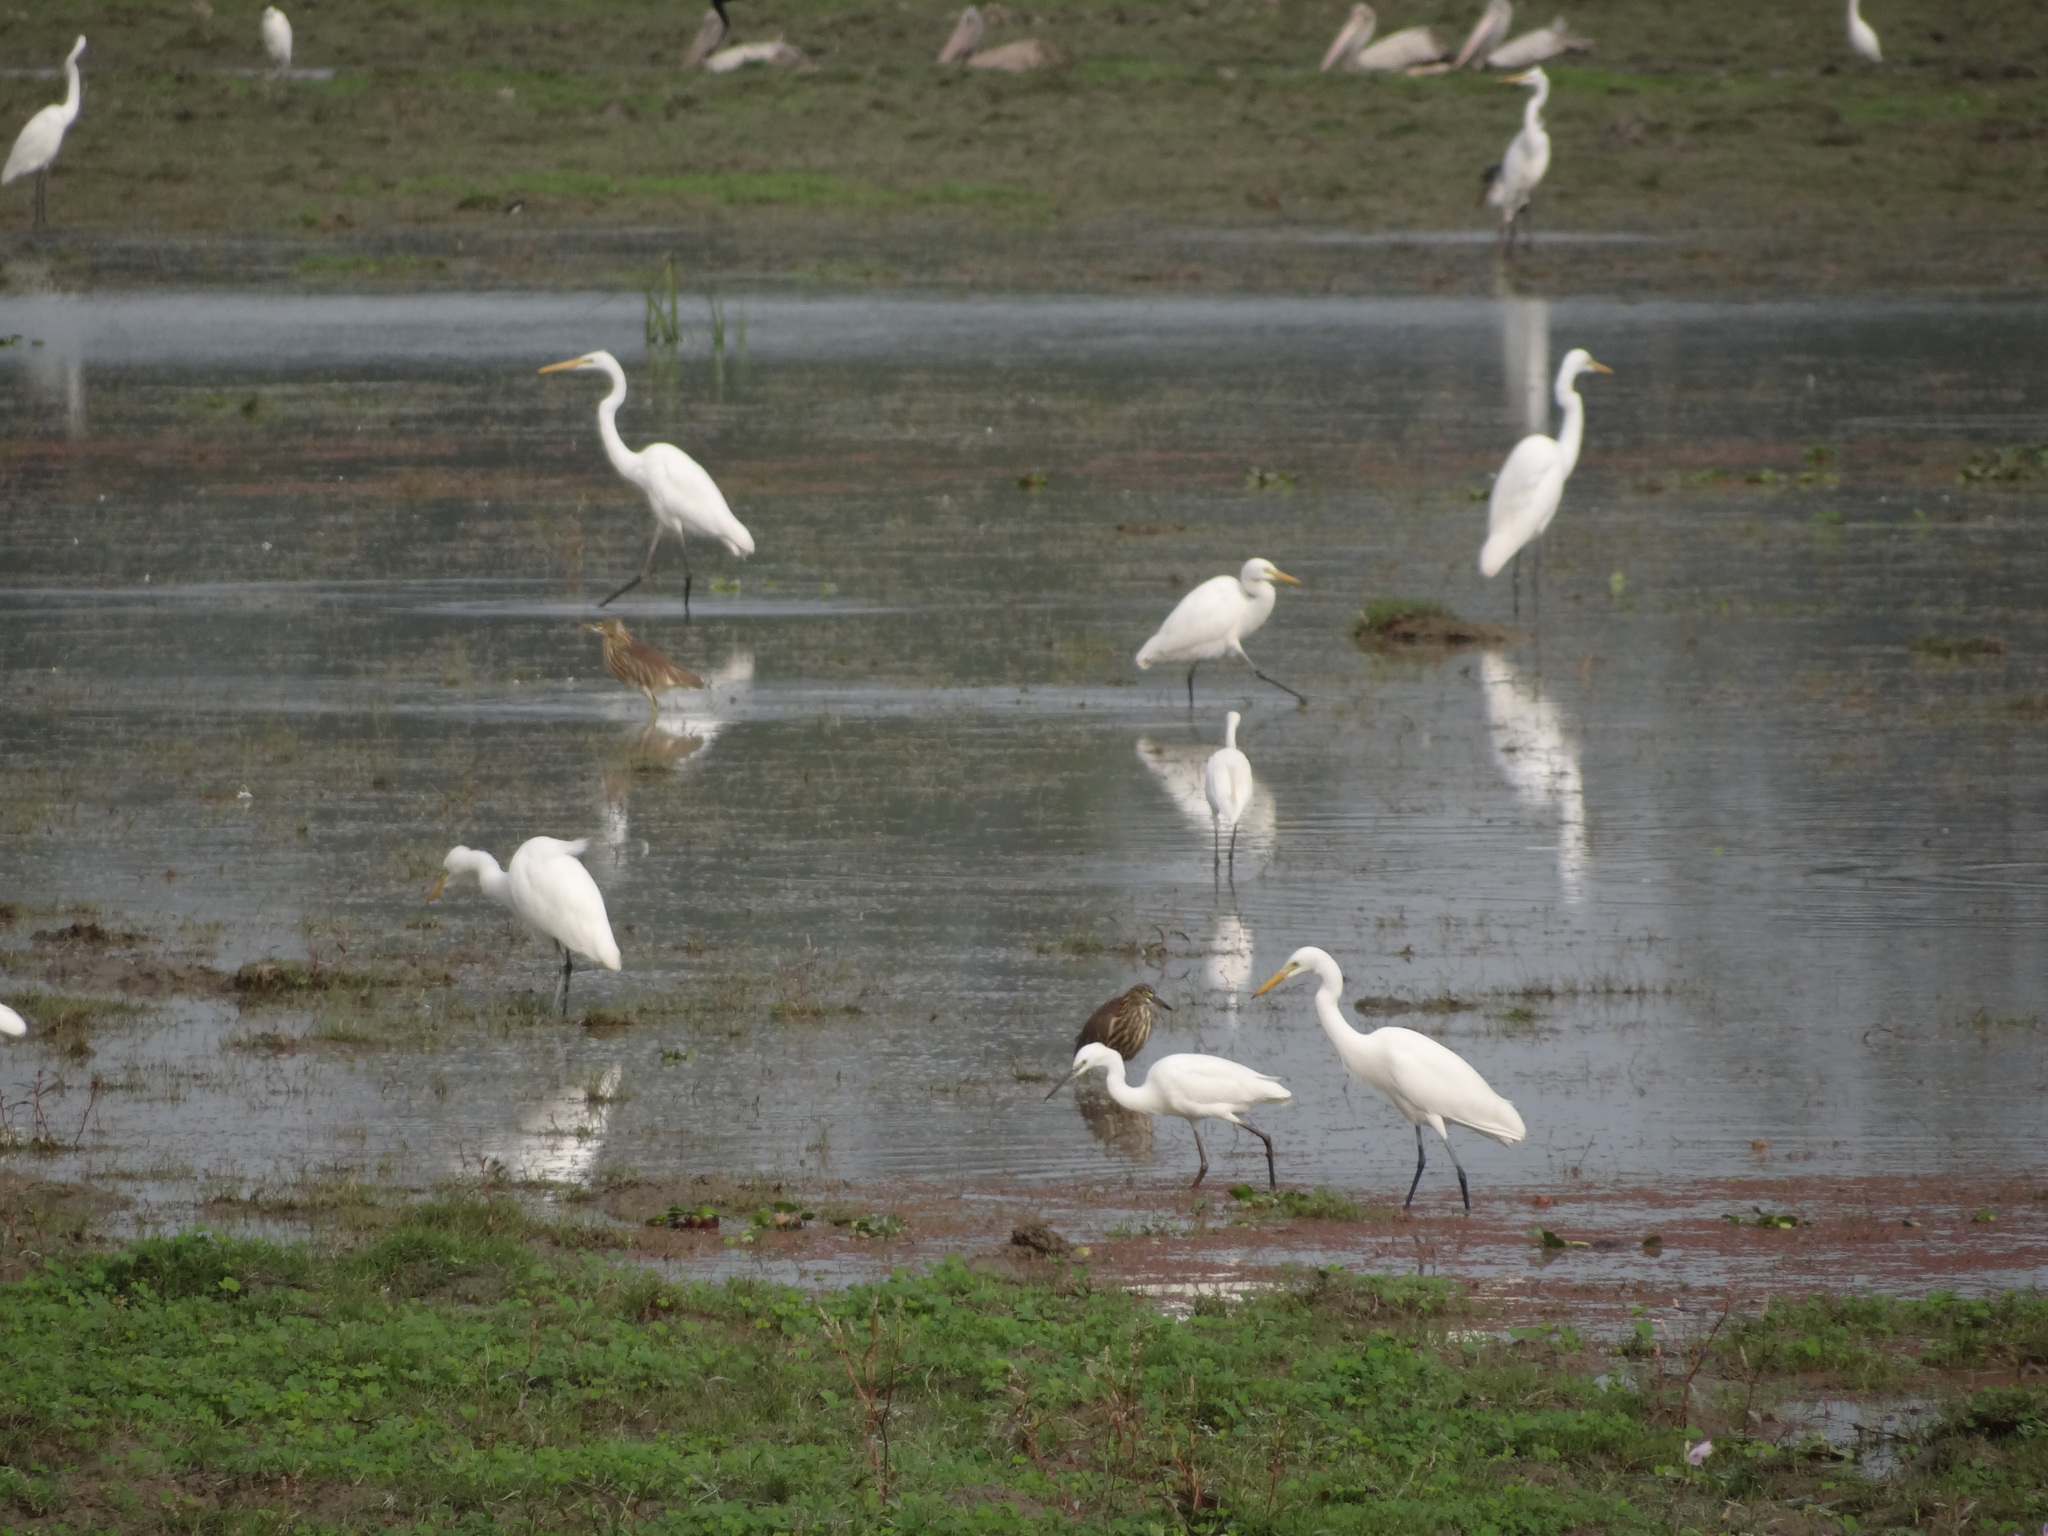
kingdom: Animalia
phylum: Chordata
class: Aves
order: Pelecaniformes
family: Ardeidae
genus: Egretta
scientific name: Egretta intermedia
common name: Intermediate egret
